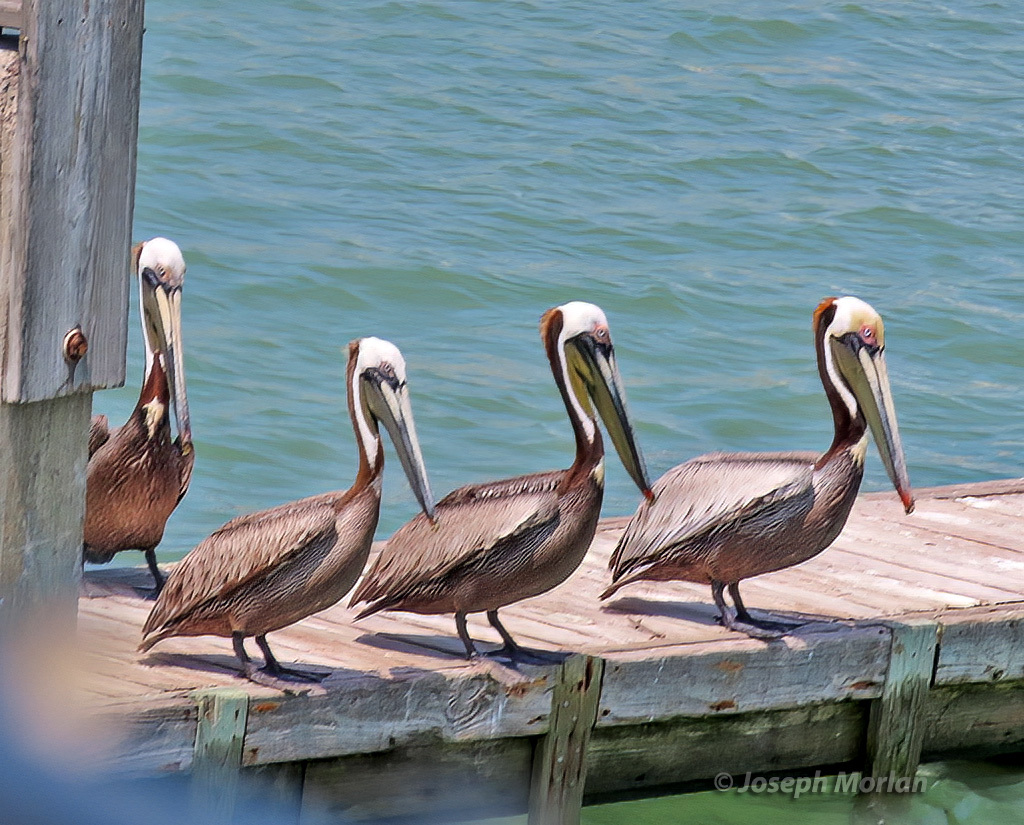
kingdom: Animalia
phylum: Chordata
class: Aves
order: Pelecaniformes
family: Pelecanidae
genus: Pelecanus
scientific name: Pelecanus occidentalis
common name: Brown pelican
